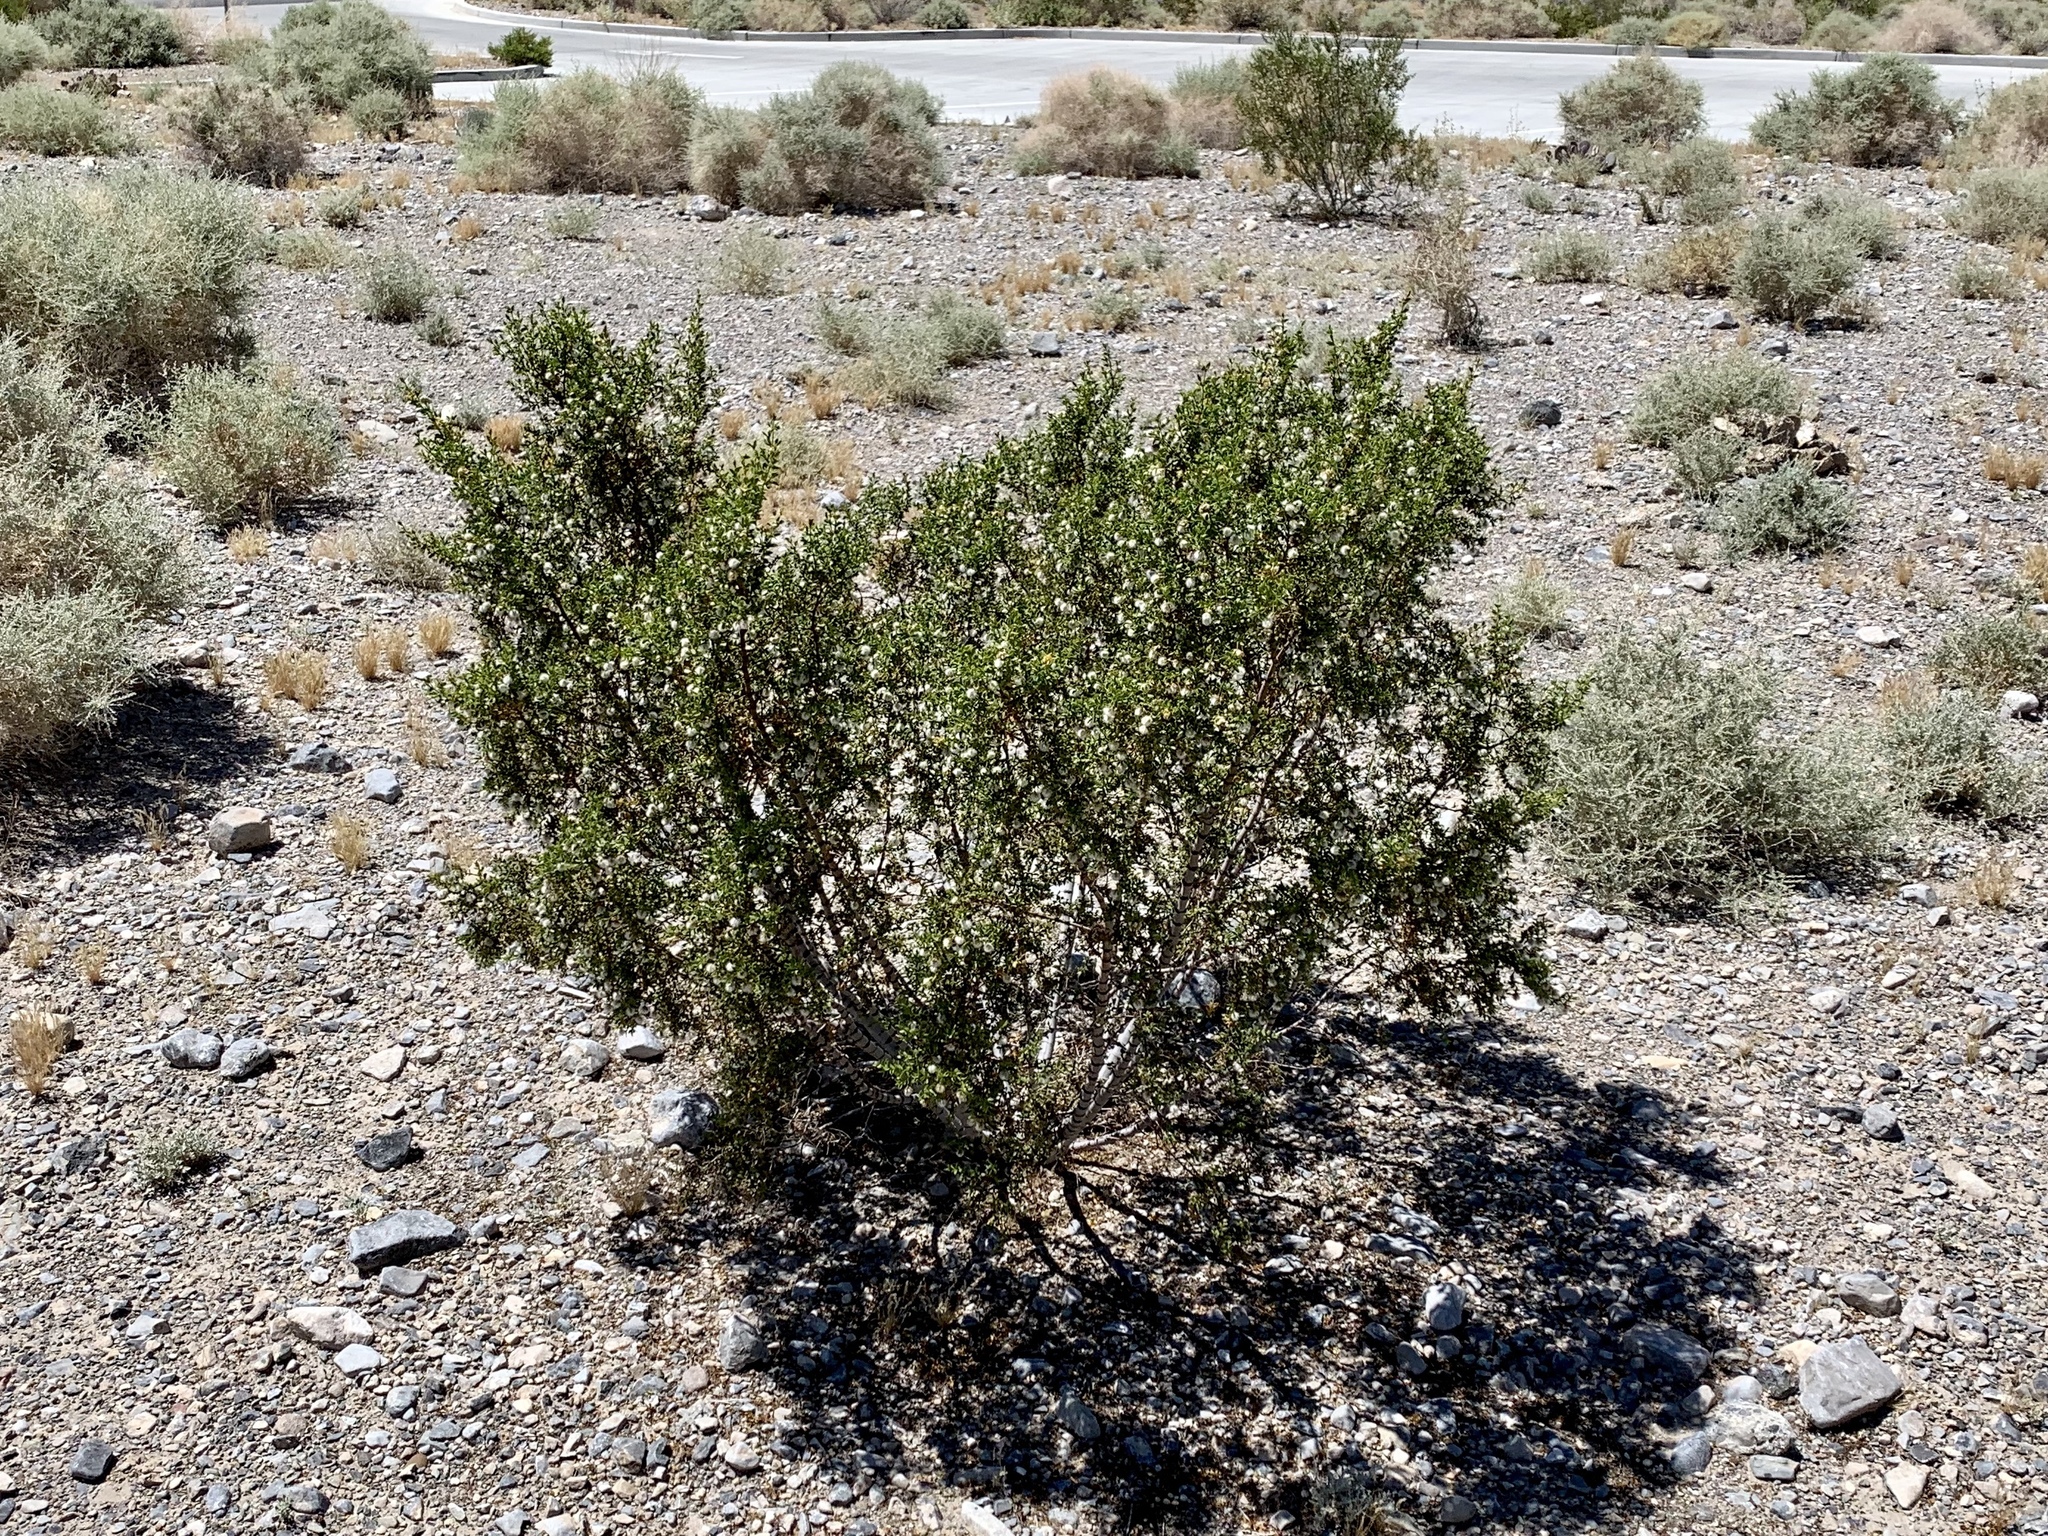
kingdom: Plantae
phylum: Tracheophyta
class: Magnoliopsida
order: Zygophyllales
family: Zygophyllaceae
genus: Larrea
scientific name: Larrea tridentata
